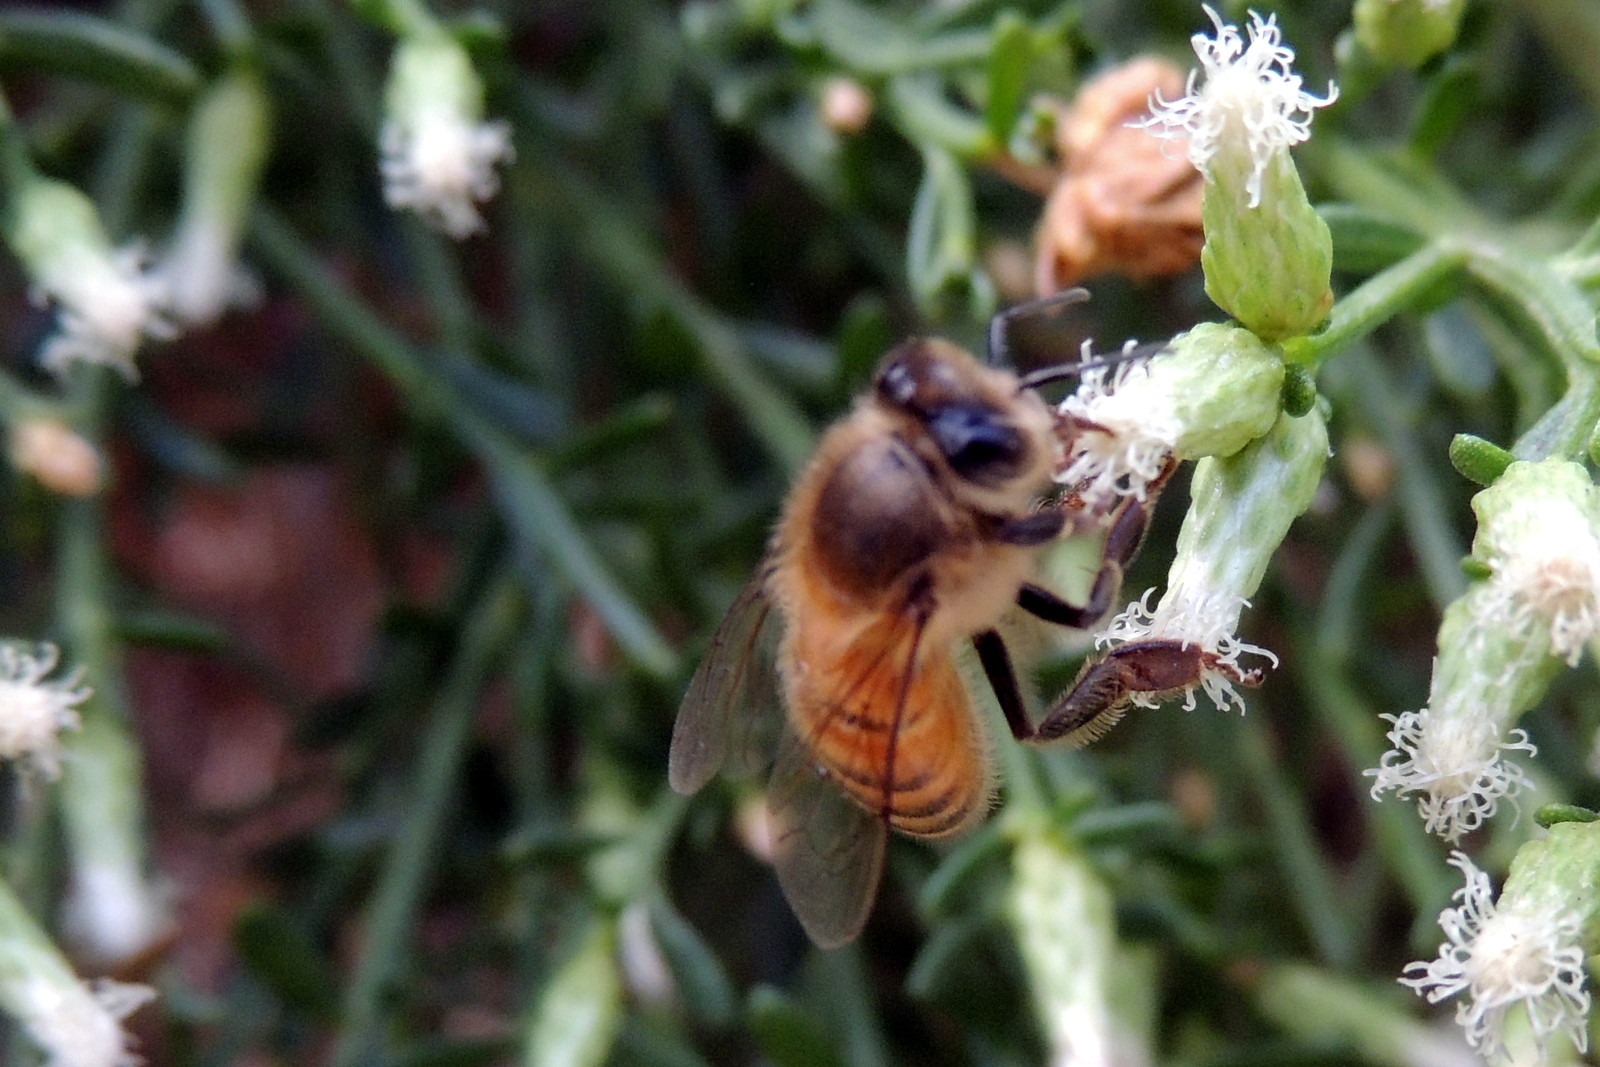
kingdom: Animalia
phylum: Arthropoda
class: Insecta
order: Hymenoptera
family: Apidae
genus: Apis
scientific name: Apis mellifera
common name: Honey bee
